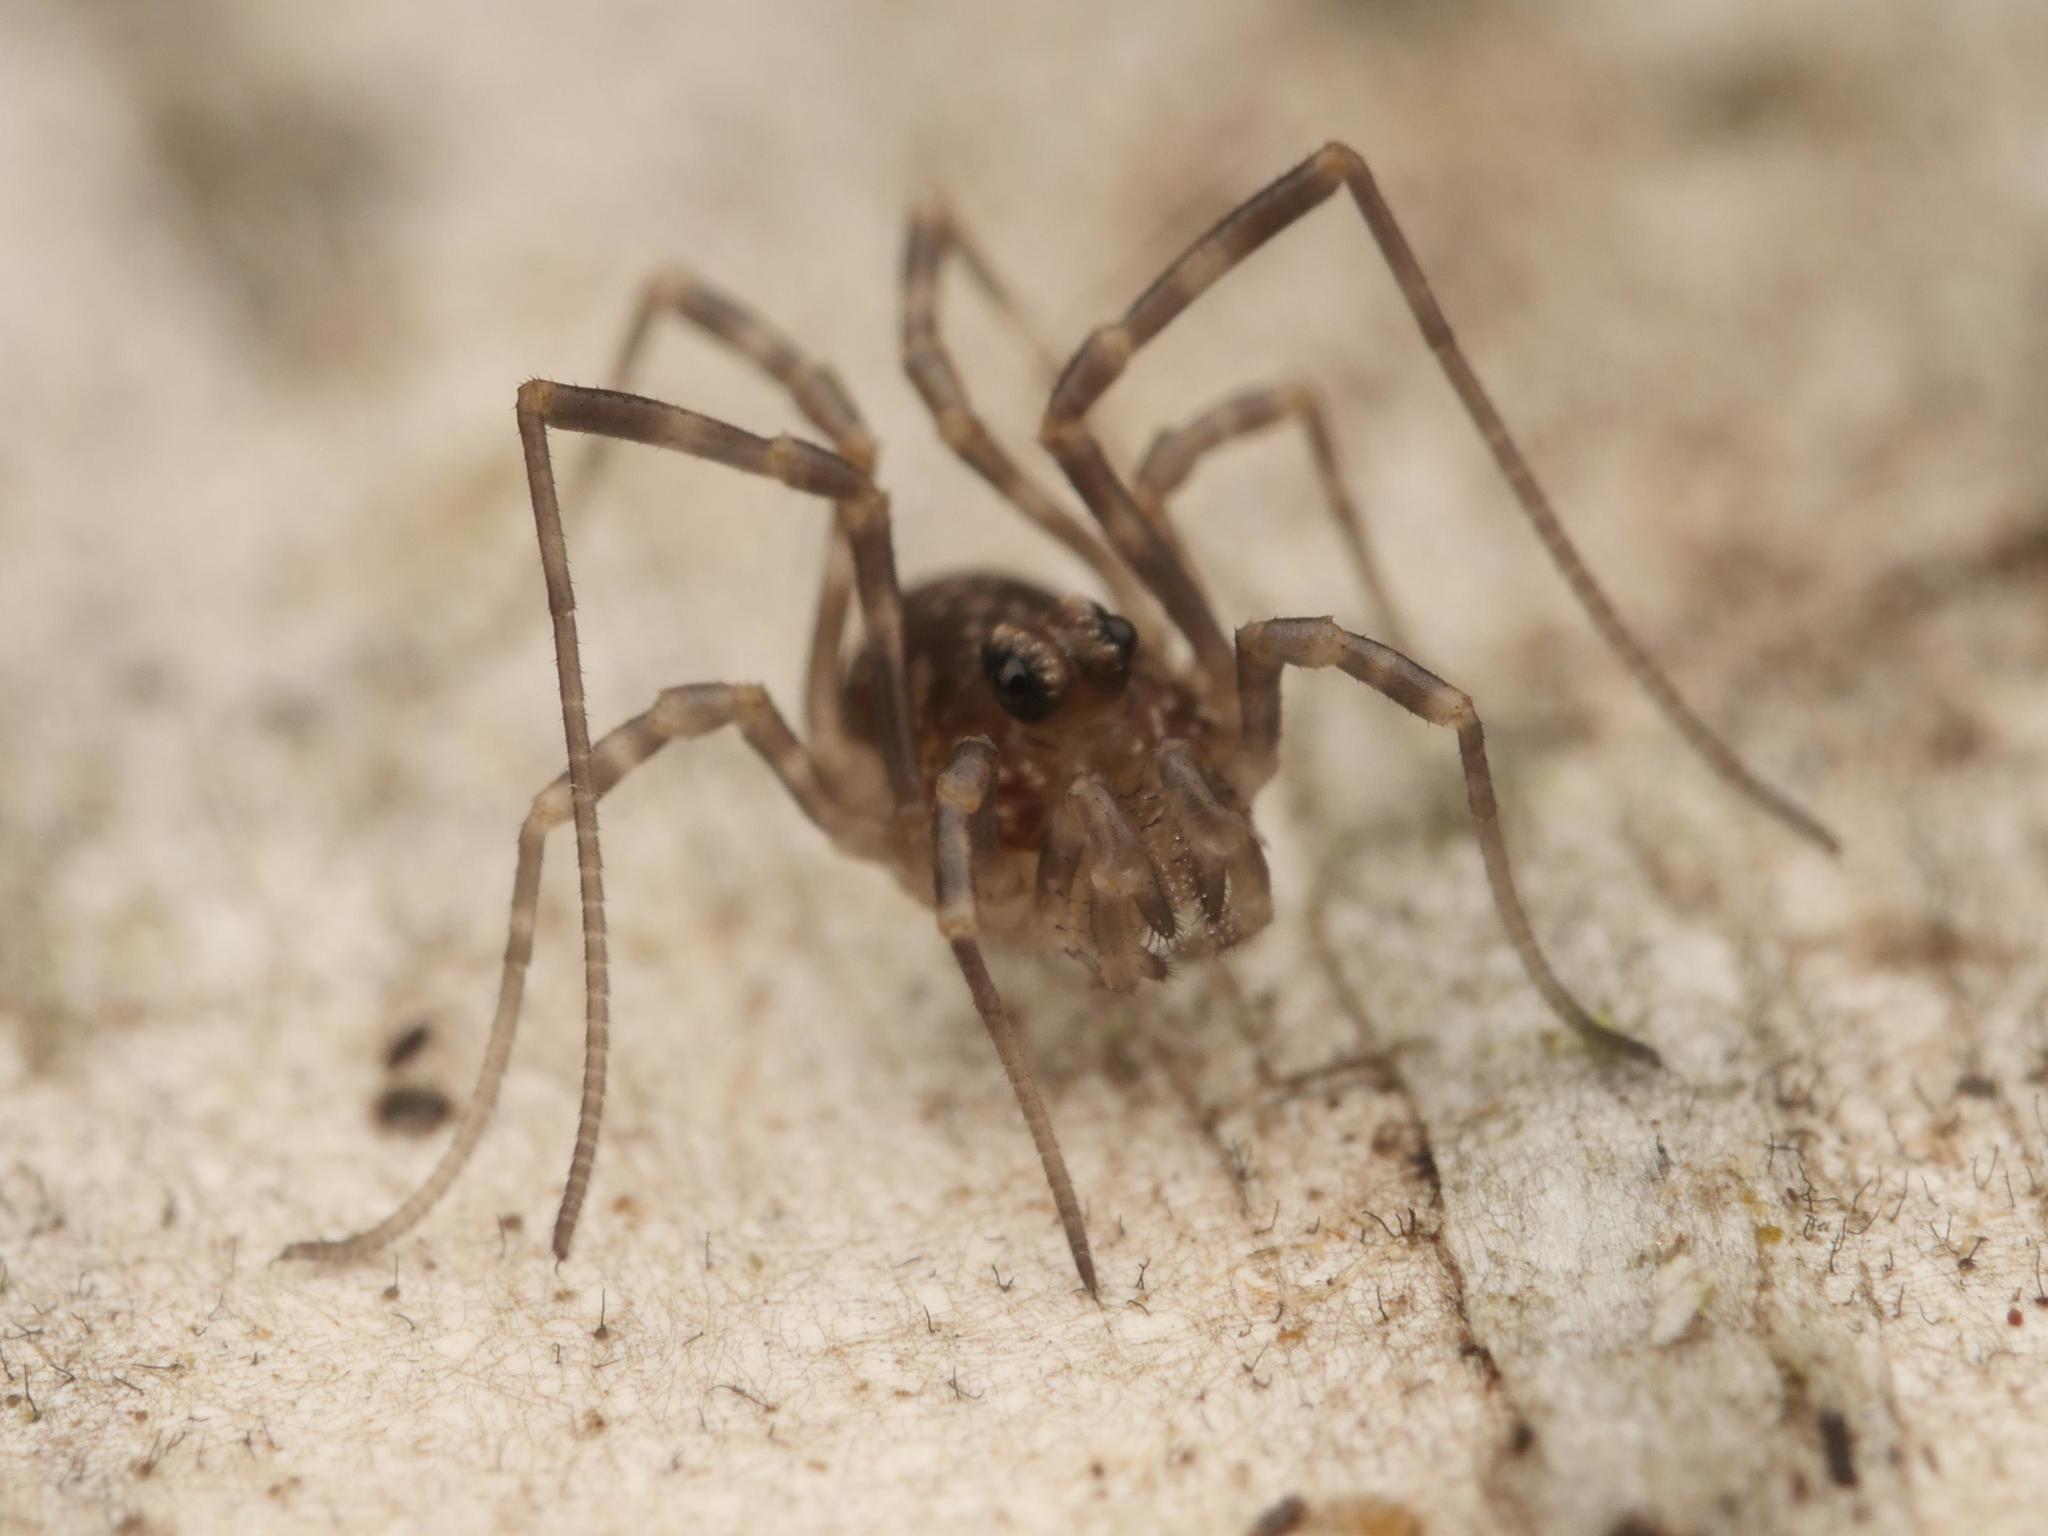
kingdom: Animalia
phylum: Arthropoda
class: Arachnida
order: Opiliones
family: Phalangiidae
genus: Rilaena
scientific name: Rilaena triangularis
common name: Spring harvestman
